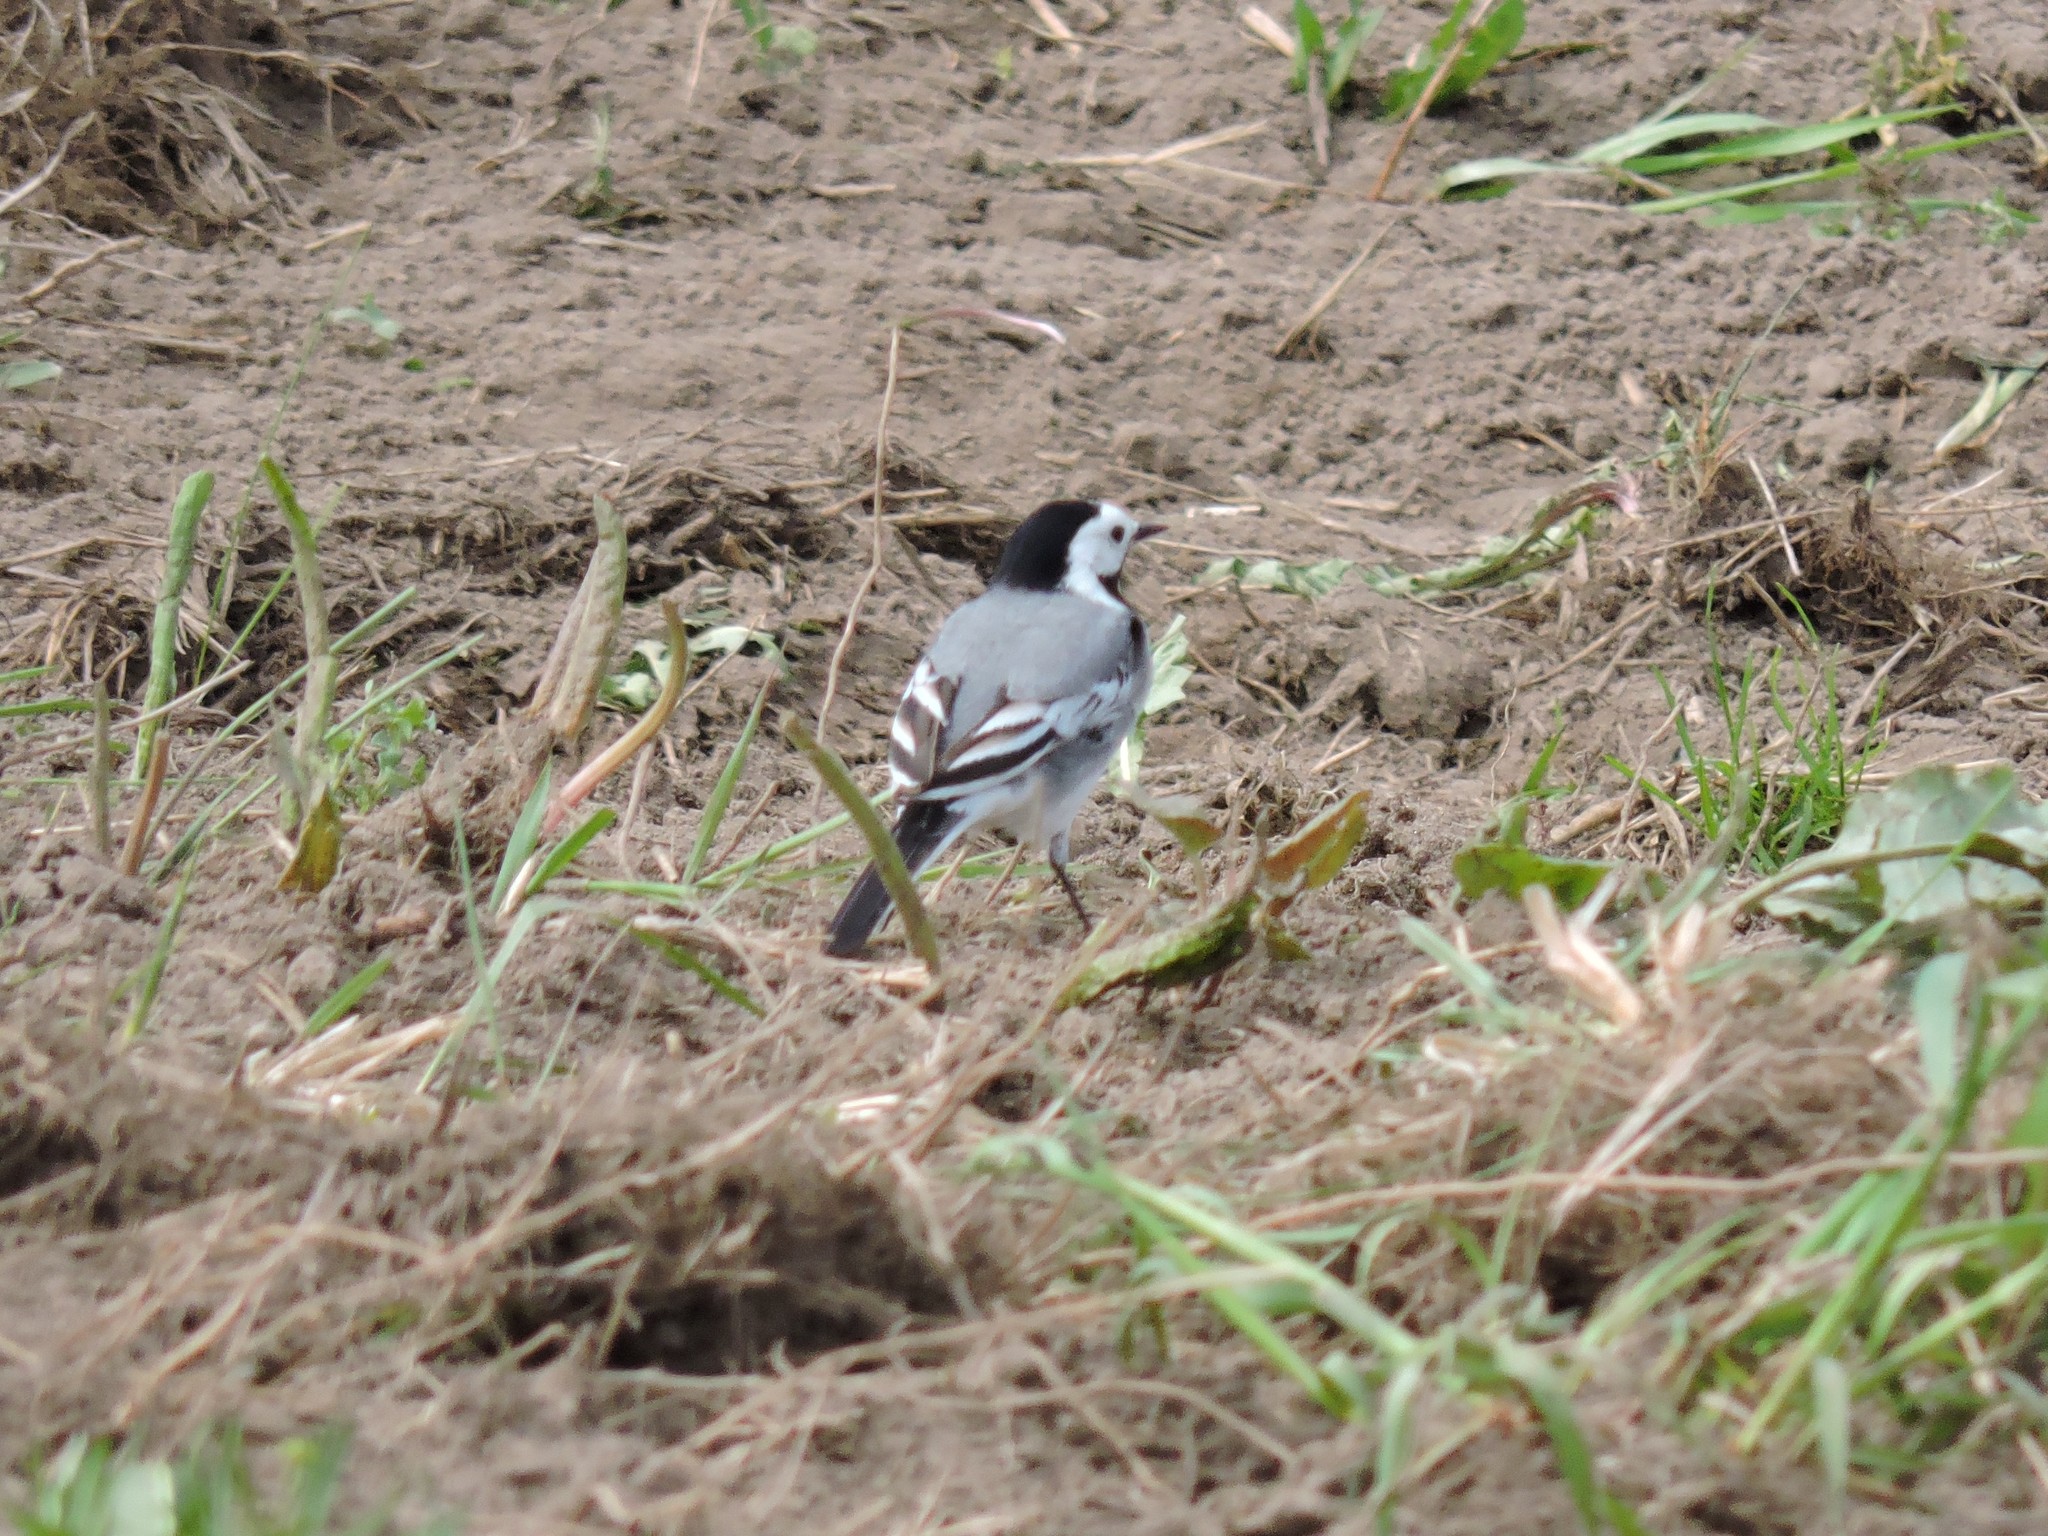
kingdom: Animalia
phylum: Chordata
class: Aves
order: Passeriformes
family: Motacillidae
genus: Motacilla
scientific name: Motacilla alba
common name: White wagtail
